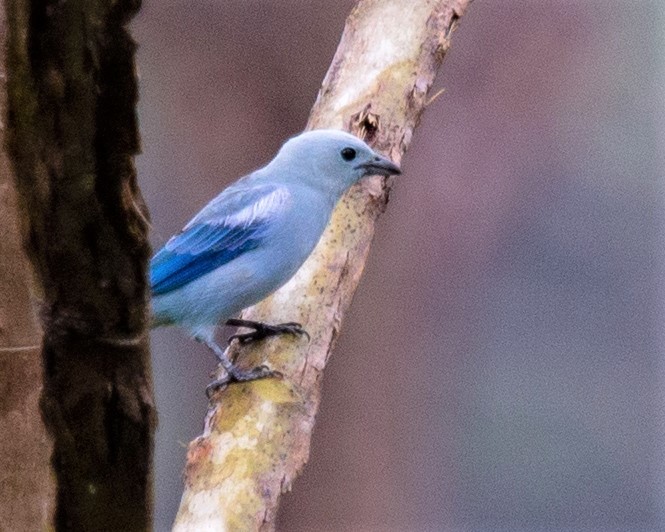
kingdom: Animalia
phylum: Chordata
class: Aves
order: Passeriformes
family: Thraupidae
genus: Thraupis
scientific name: Thraupis episcopus
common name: Blue-grey tanager
